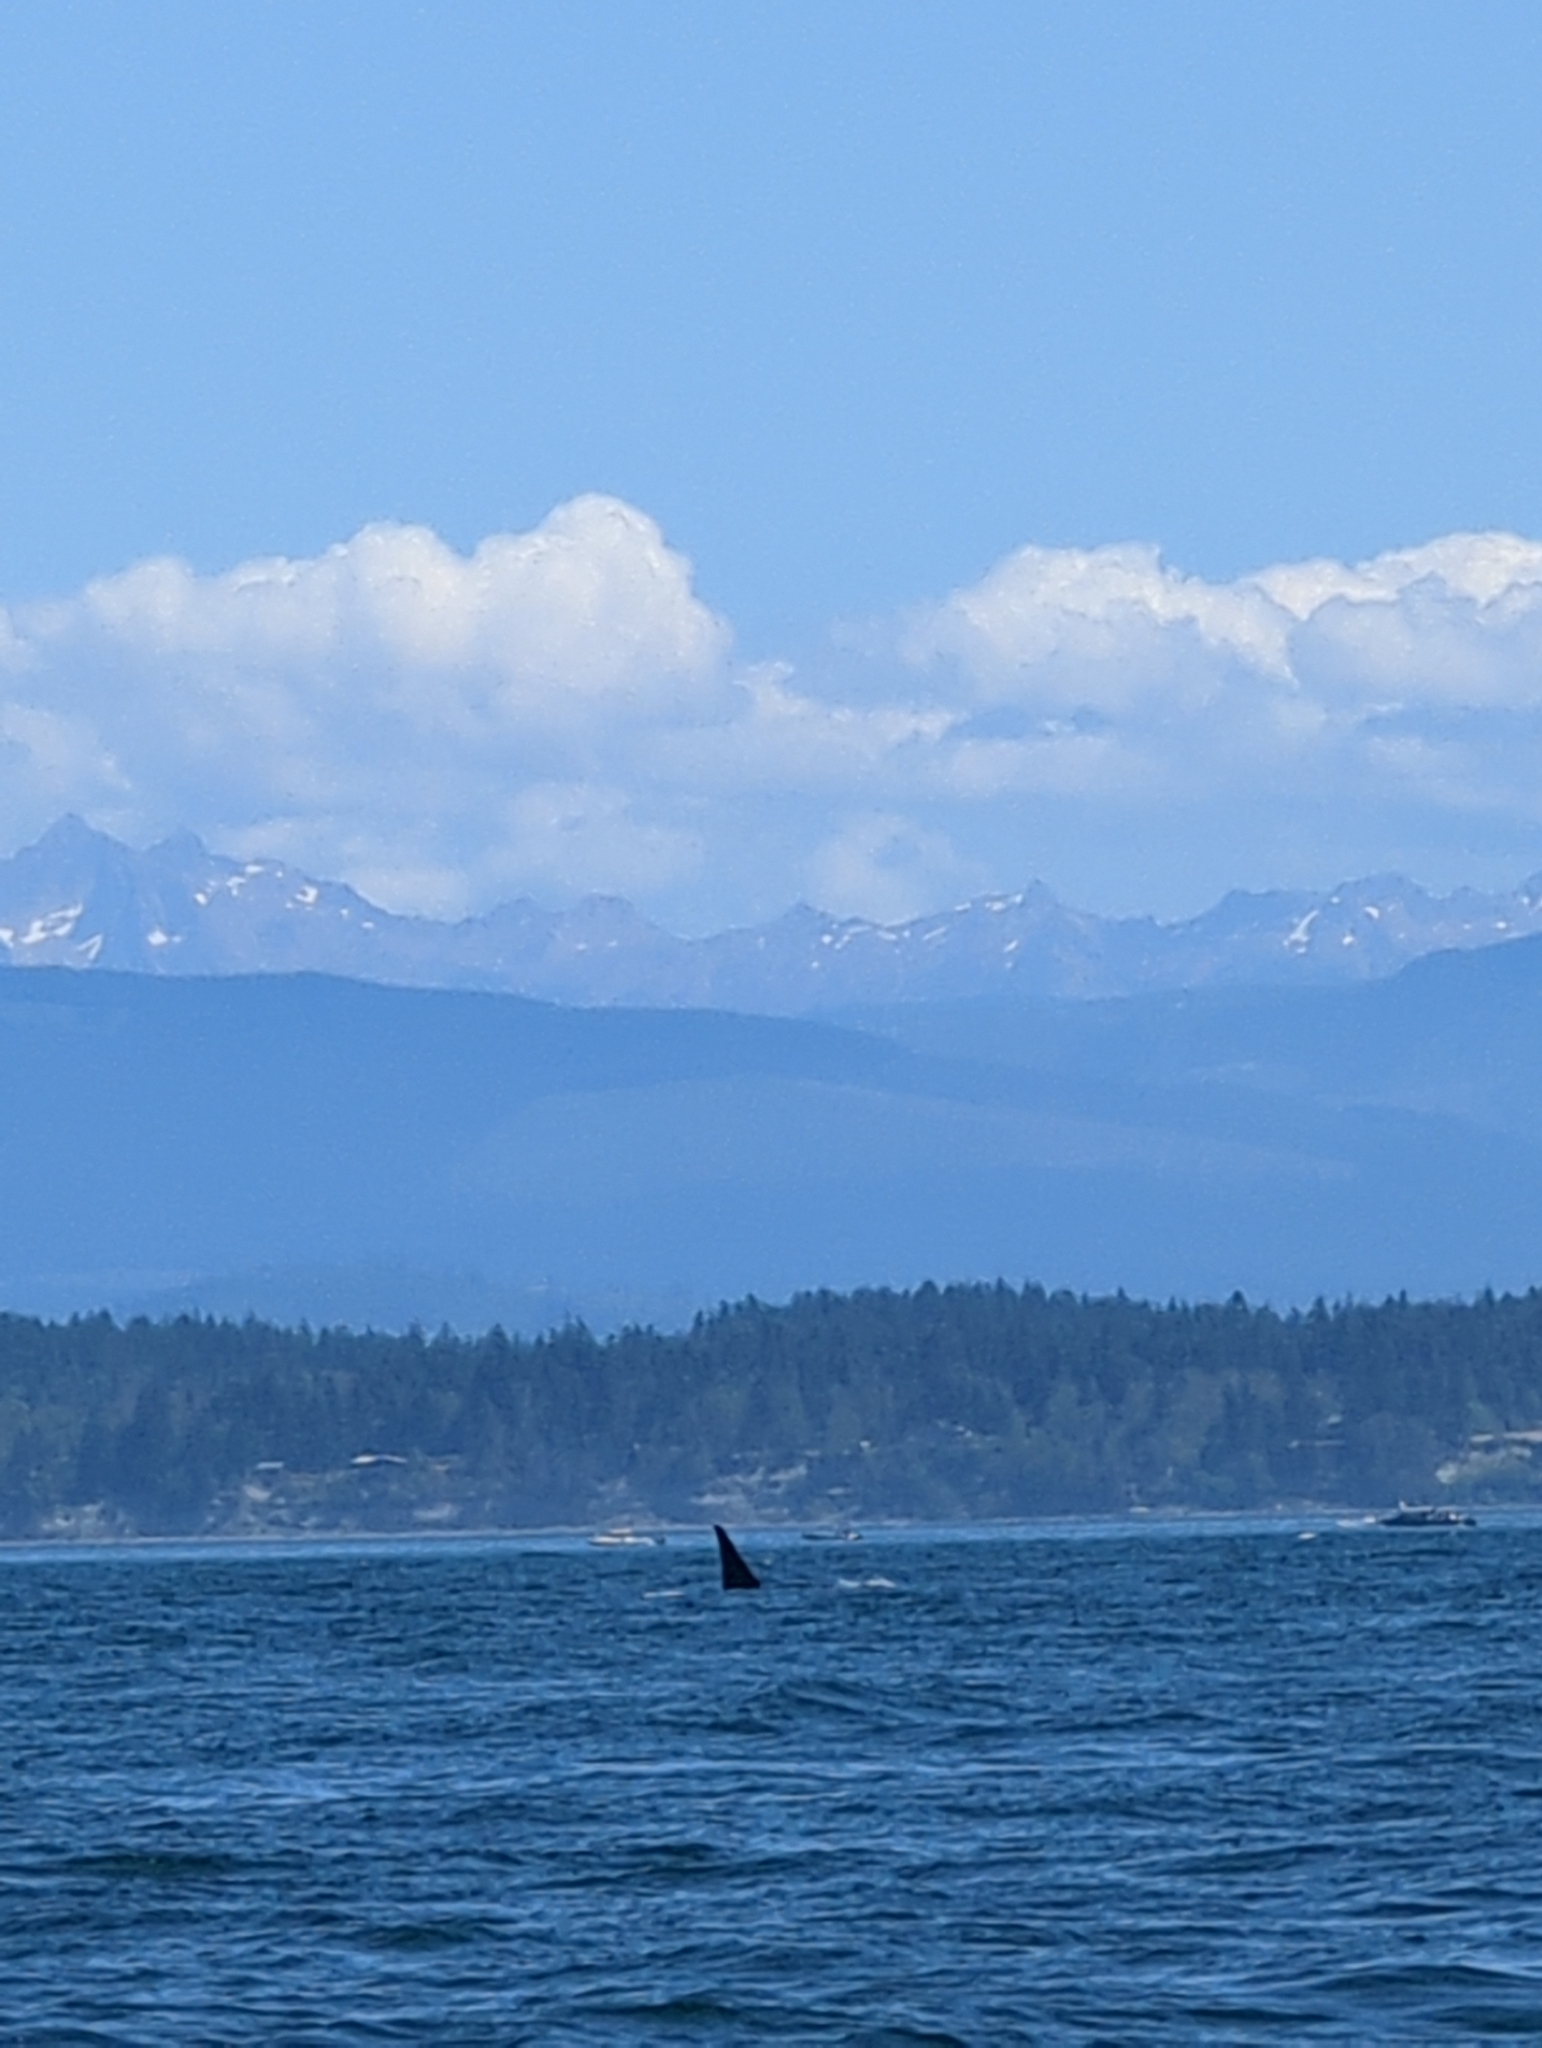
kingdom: Animalia
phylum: Chordata
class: Mammalia
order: Cetacea
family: Delphinidae
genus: Orcinus
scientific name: Orcinus orca
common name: Killer whale
